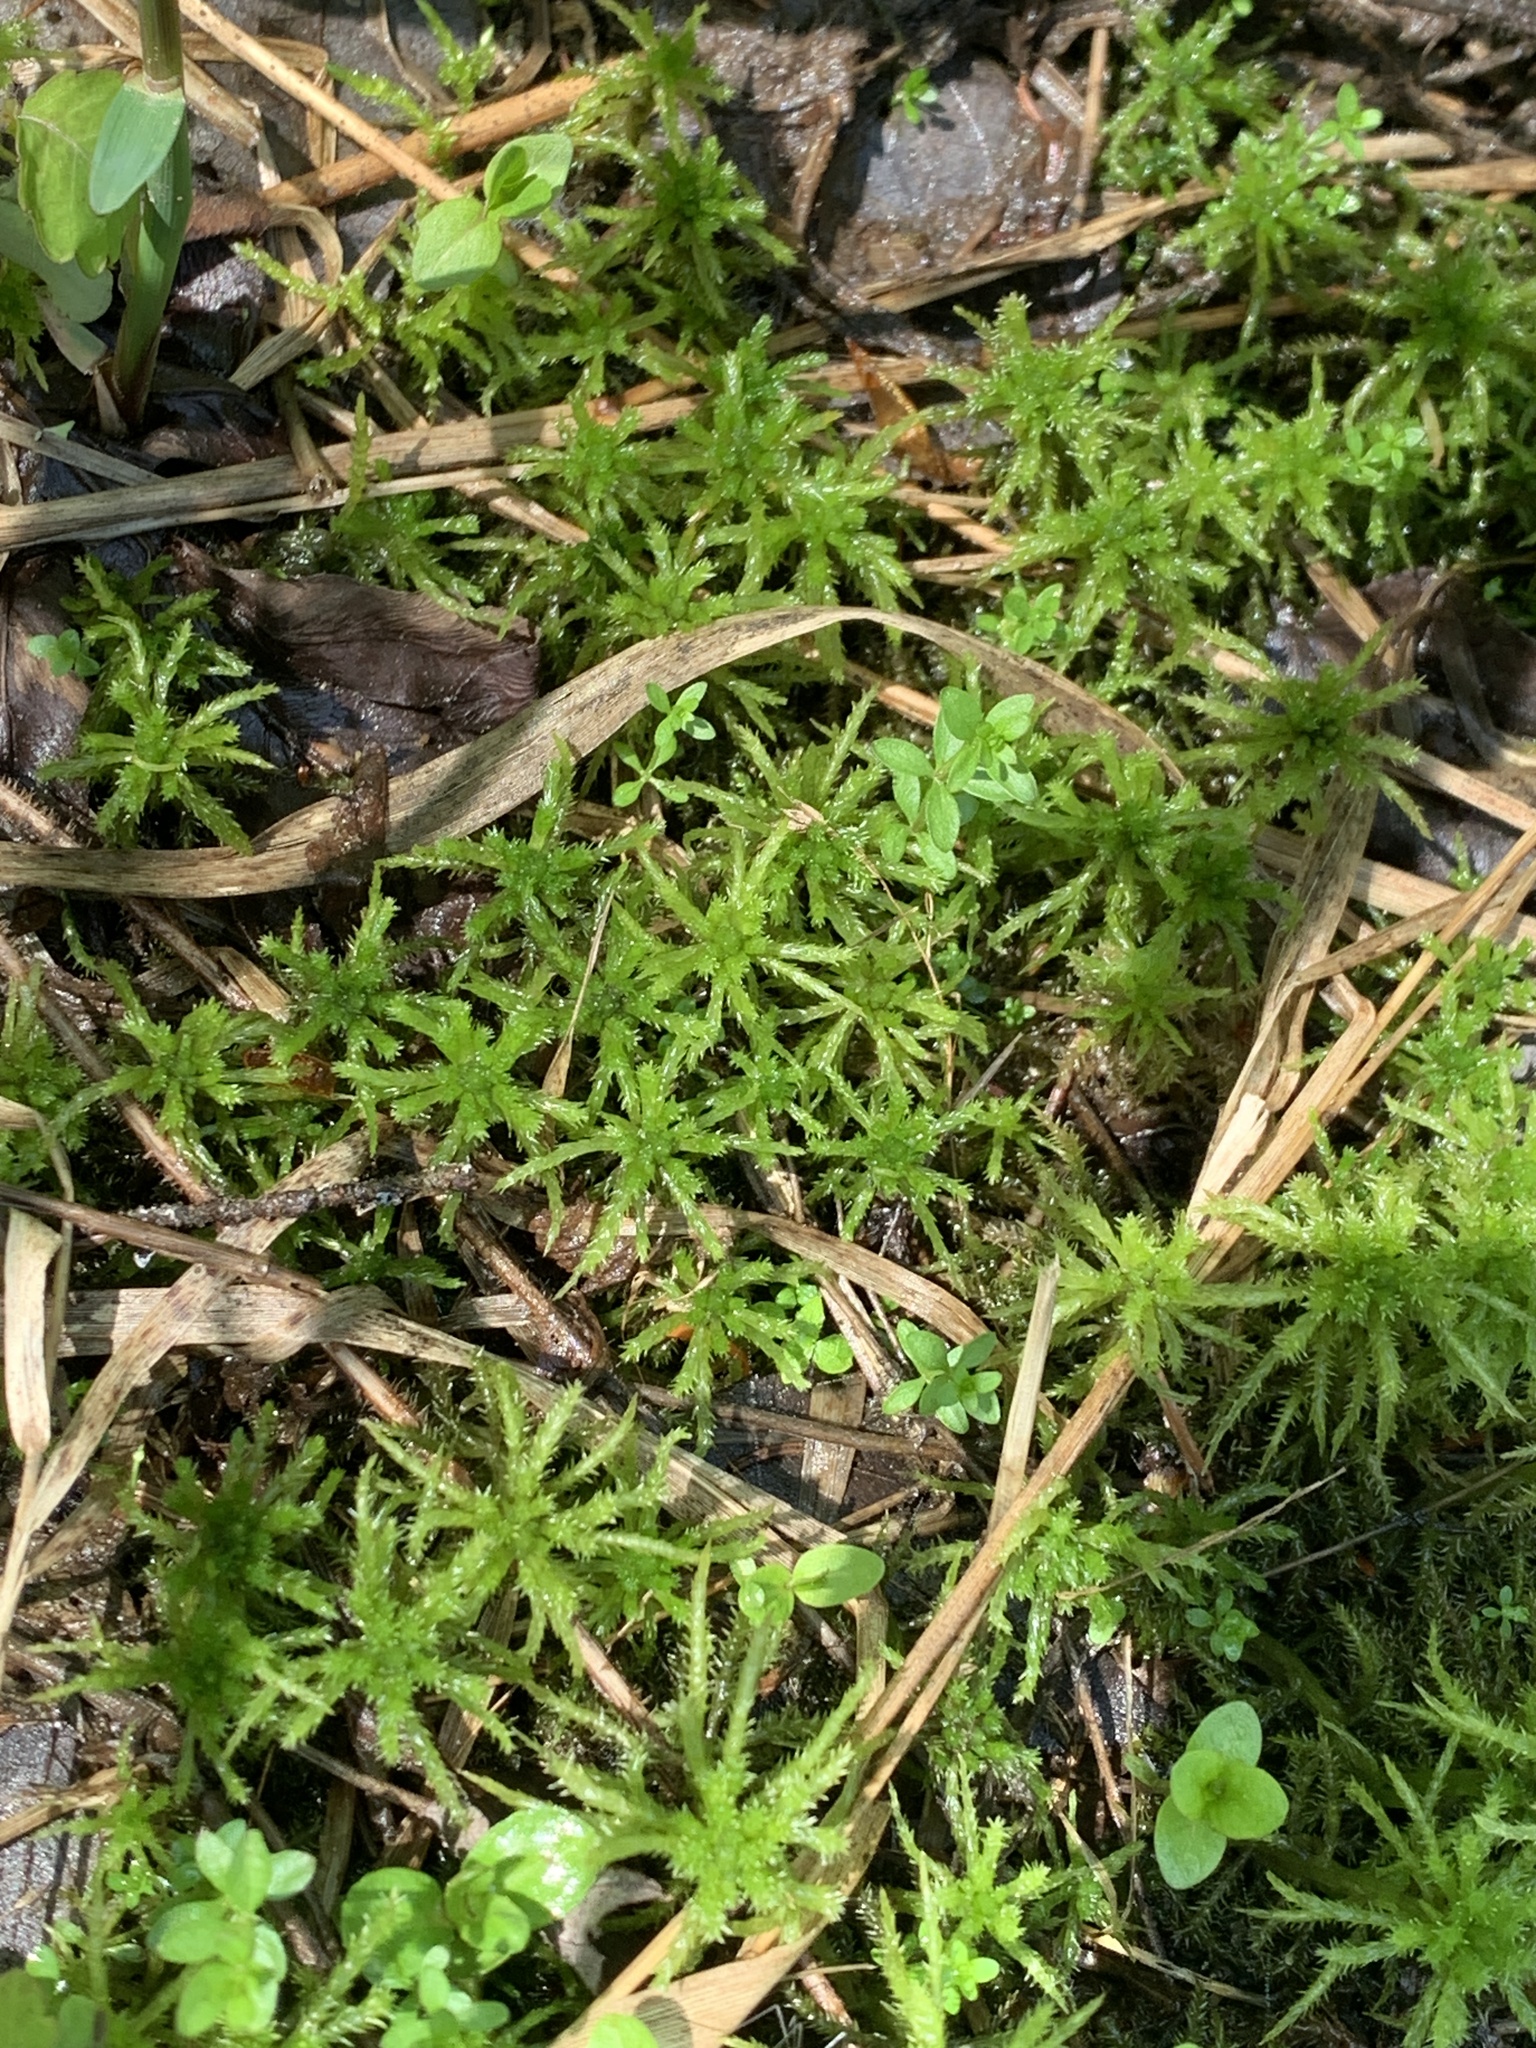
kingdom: Plantae
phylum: Bryophyta
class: Sphagnopsida
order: Sphagnales
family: Sphagnaceae
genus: Sphagnum
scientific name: Sphagnum squarrosum
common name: Shaggy peat moss
